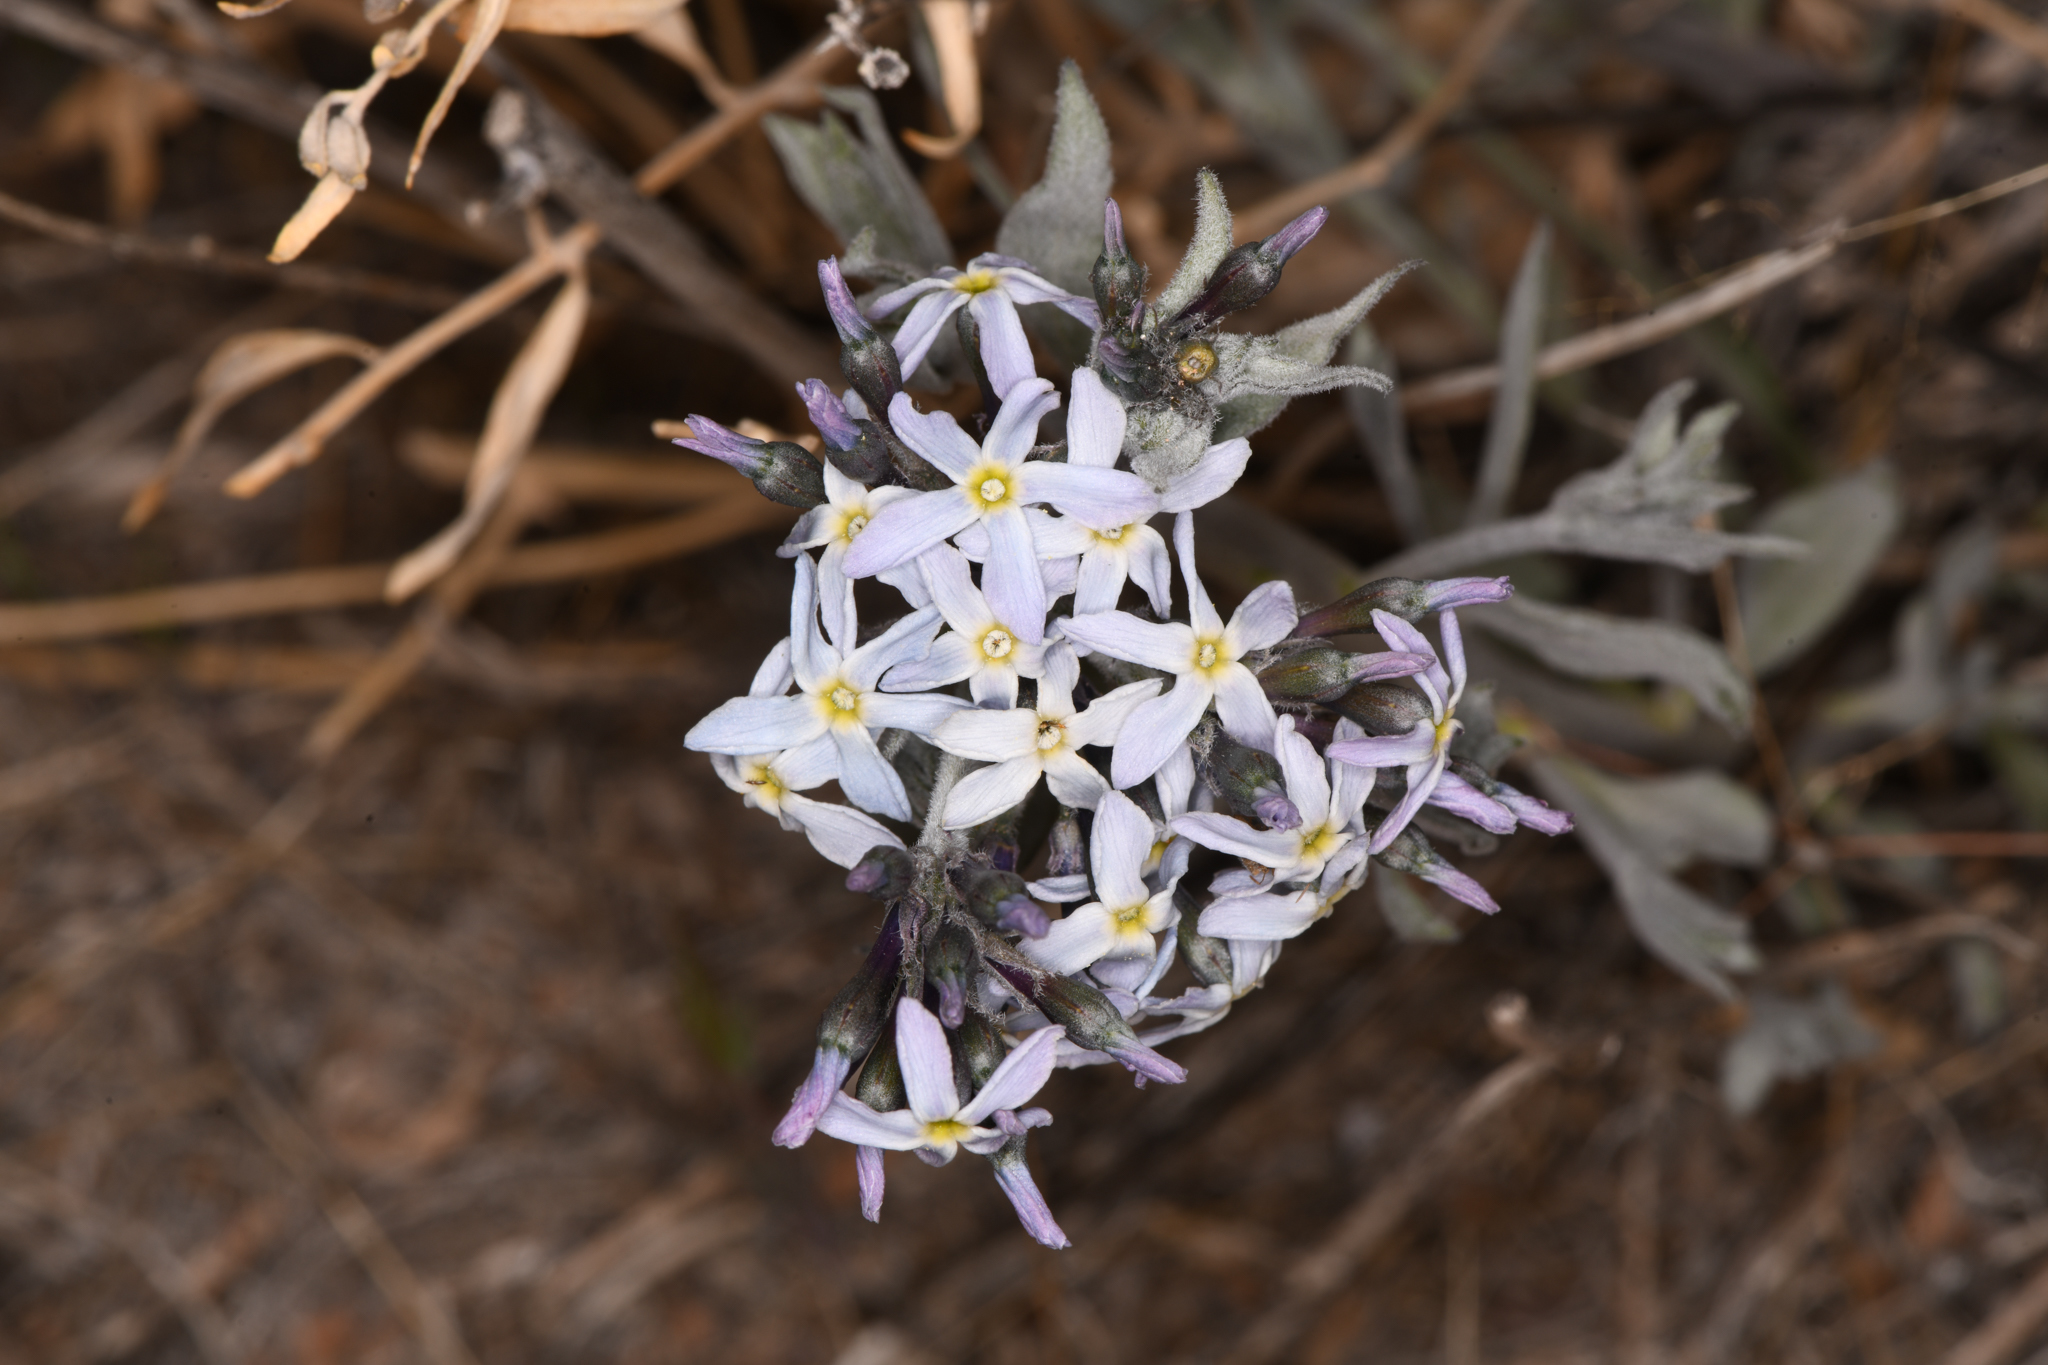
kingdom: Plantae
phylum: Tracheophyta
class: Magnoliopsida
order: Gentianales
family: Apocynaceae
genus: Amsonia
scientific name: Amsonia tomentosa
